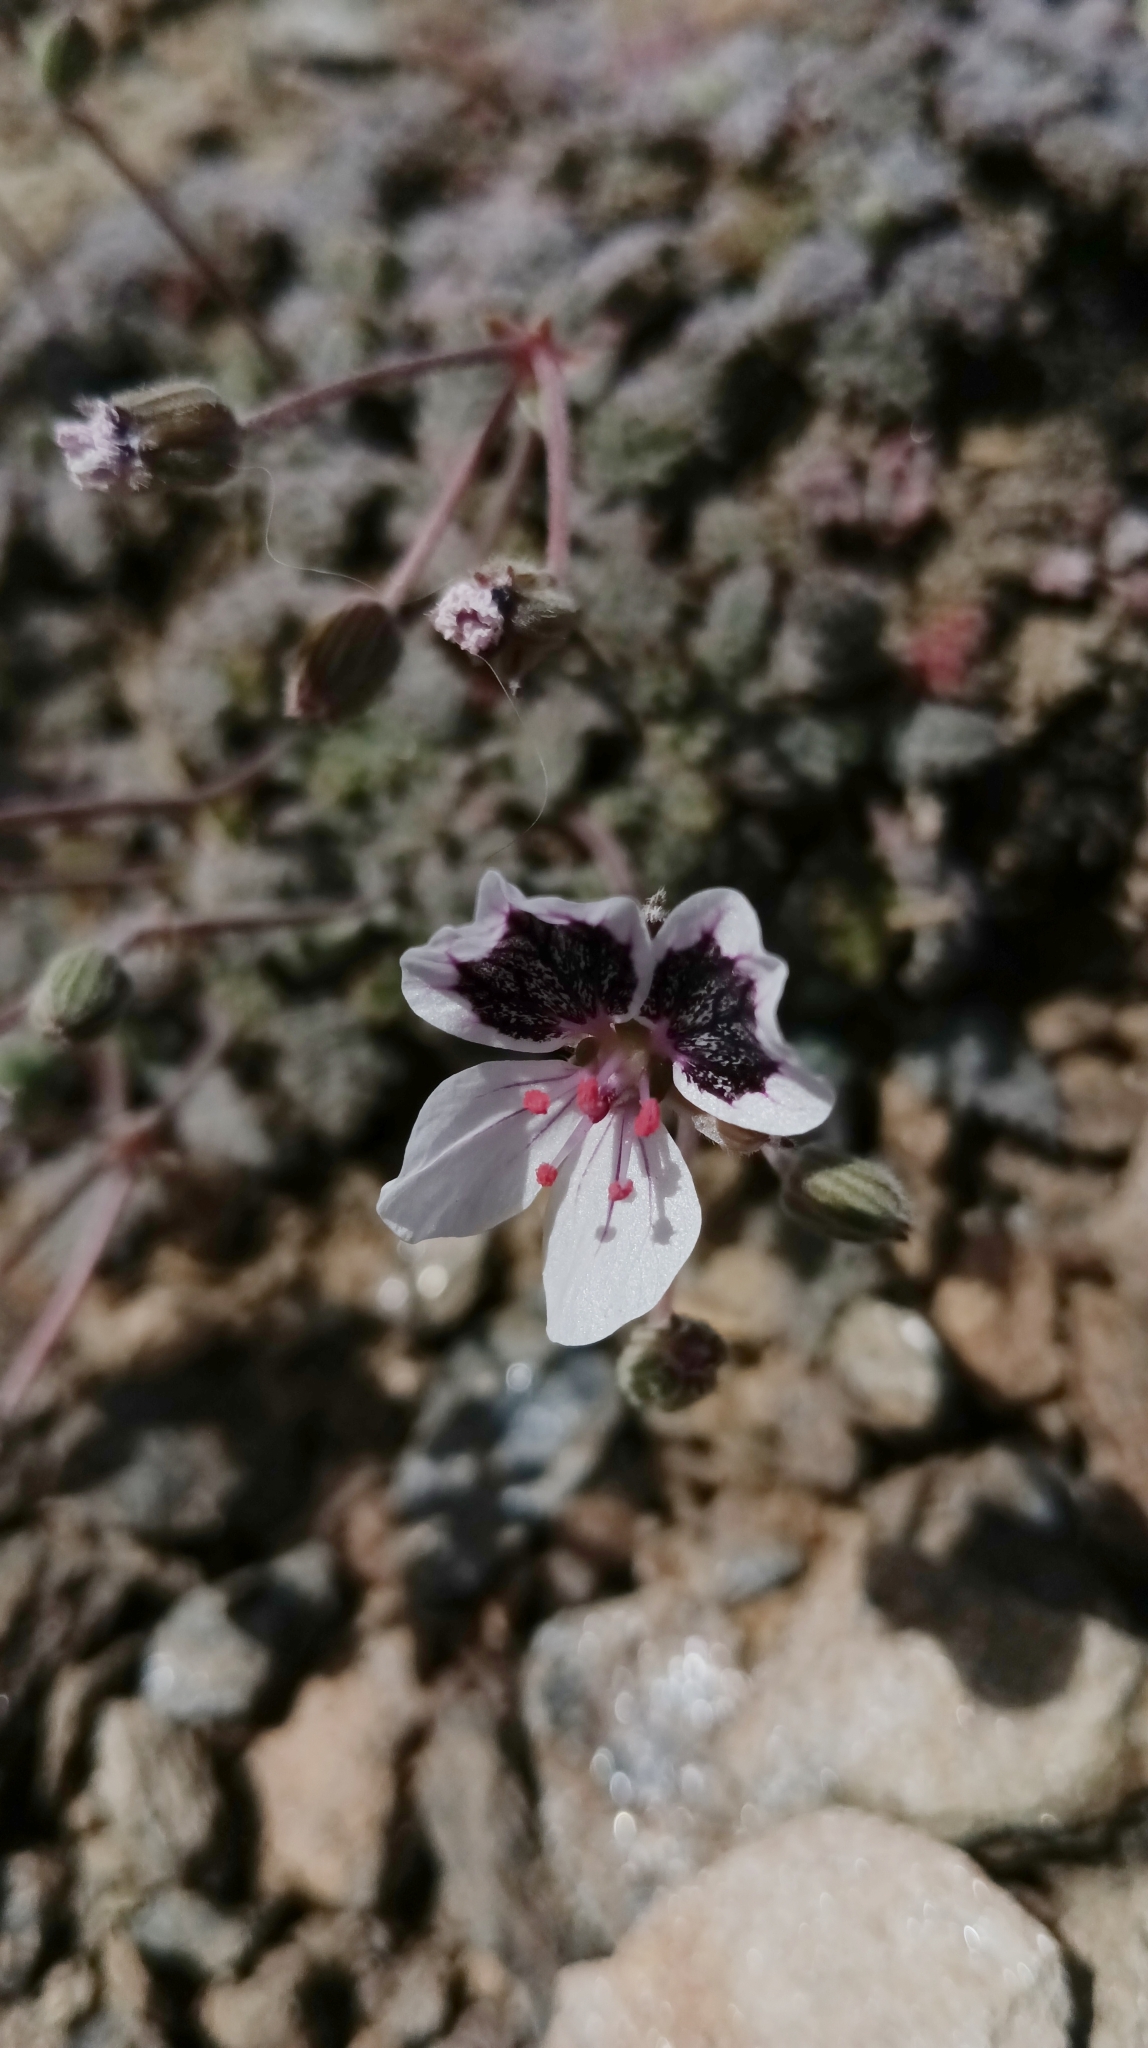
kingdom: Plantae
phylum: Tracheophyta
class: Magnoliopsida
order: Geraniales
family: Geraniaceae
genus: Erodium
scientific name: Erodium cheilanthifolium
